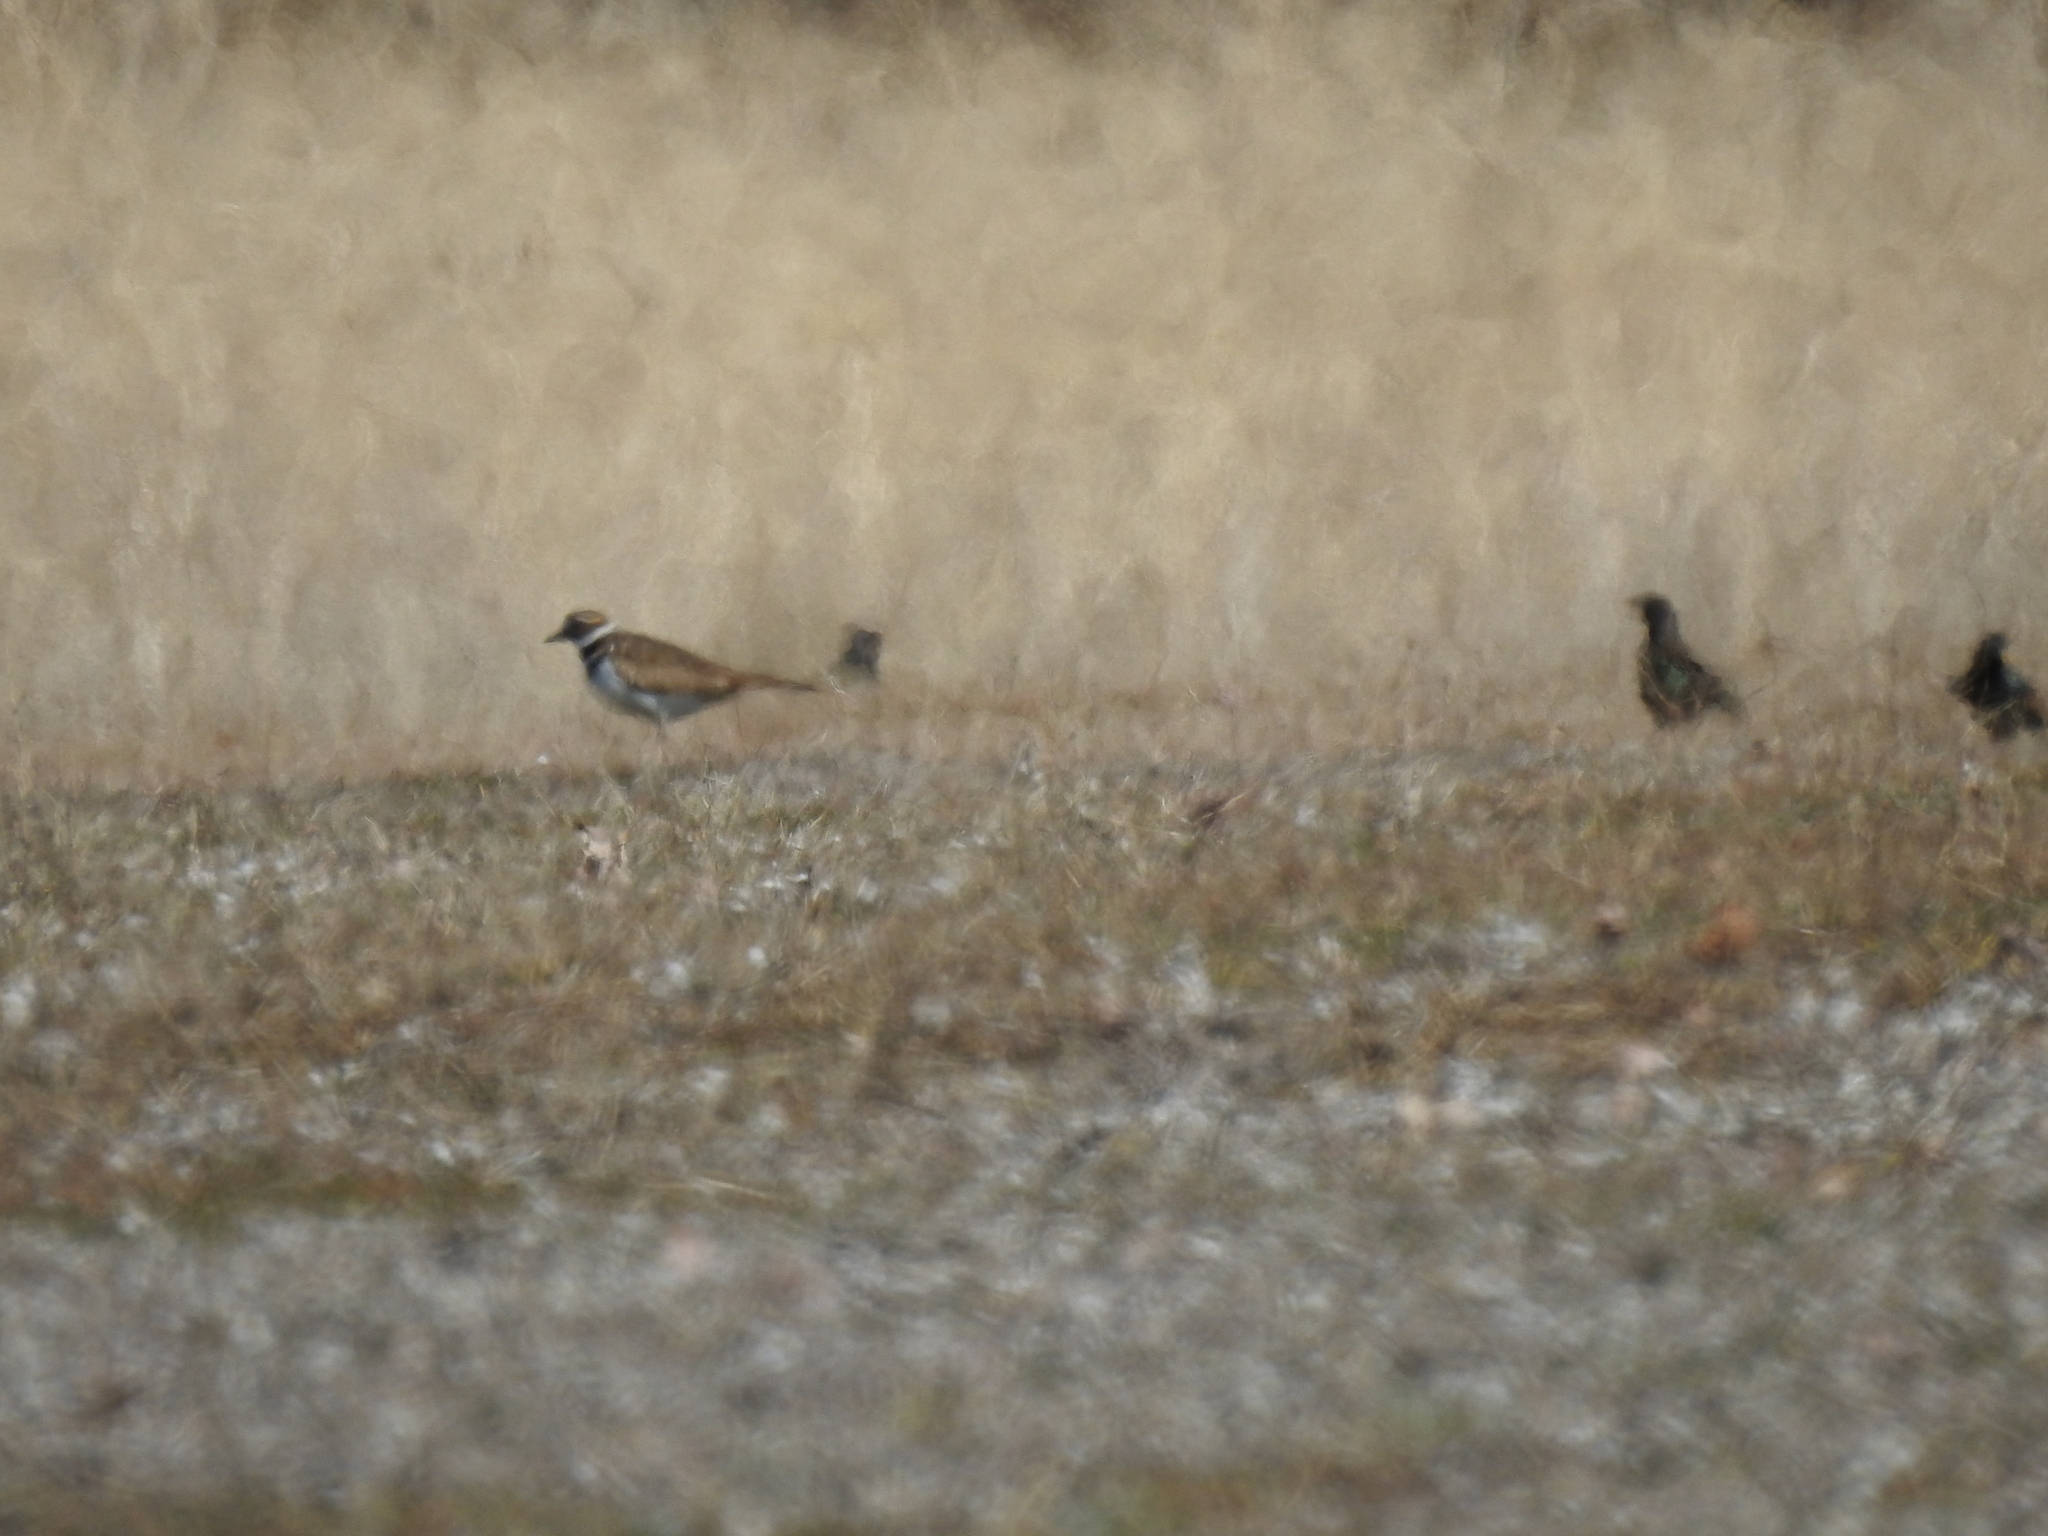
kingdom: Animalia
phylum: Chordata
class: Aves
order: Charadriiformes
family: Charadriidae
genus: Charadrius
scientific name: Charadrius vociferus
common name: Killdeer
